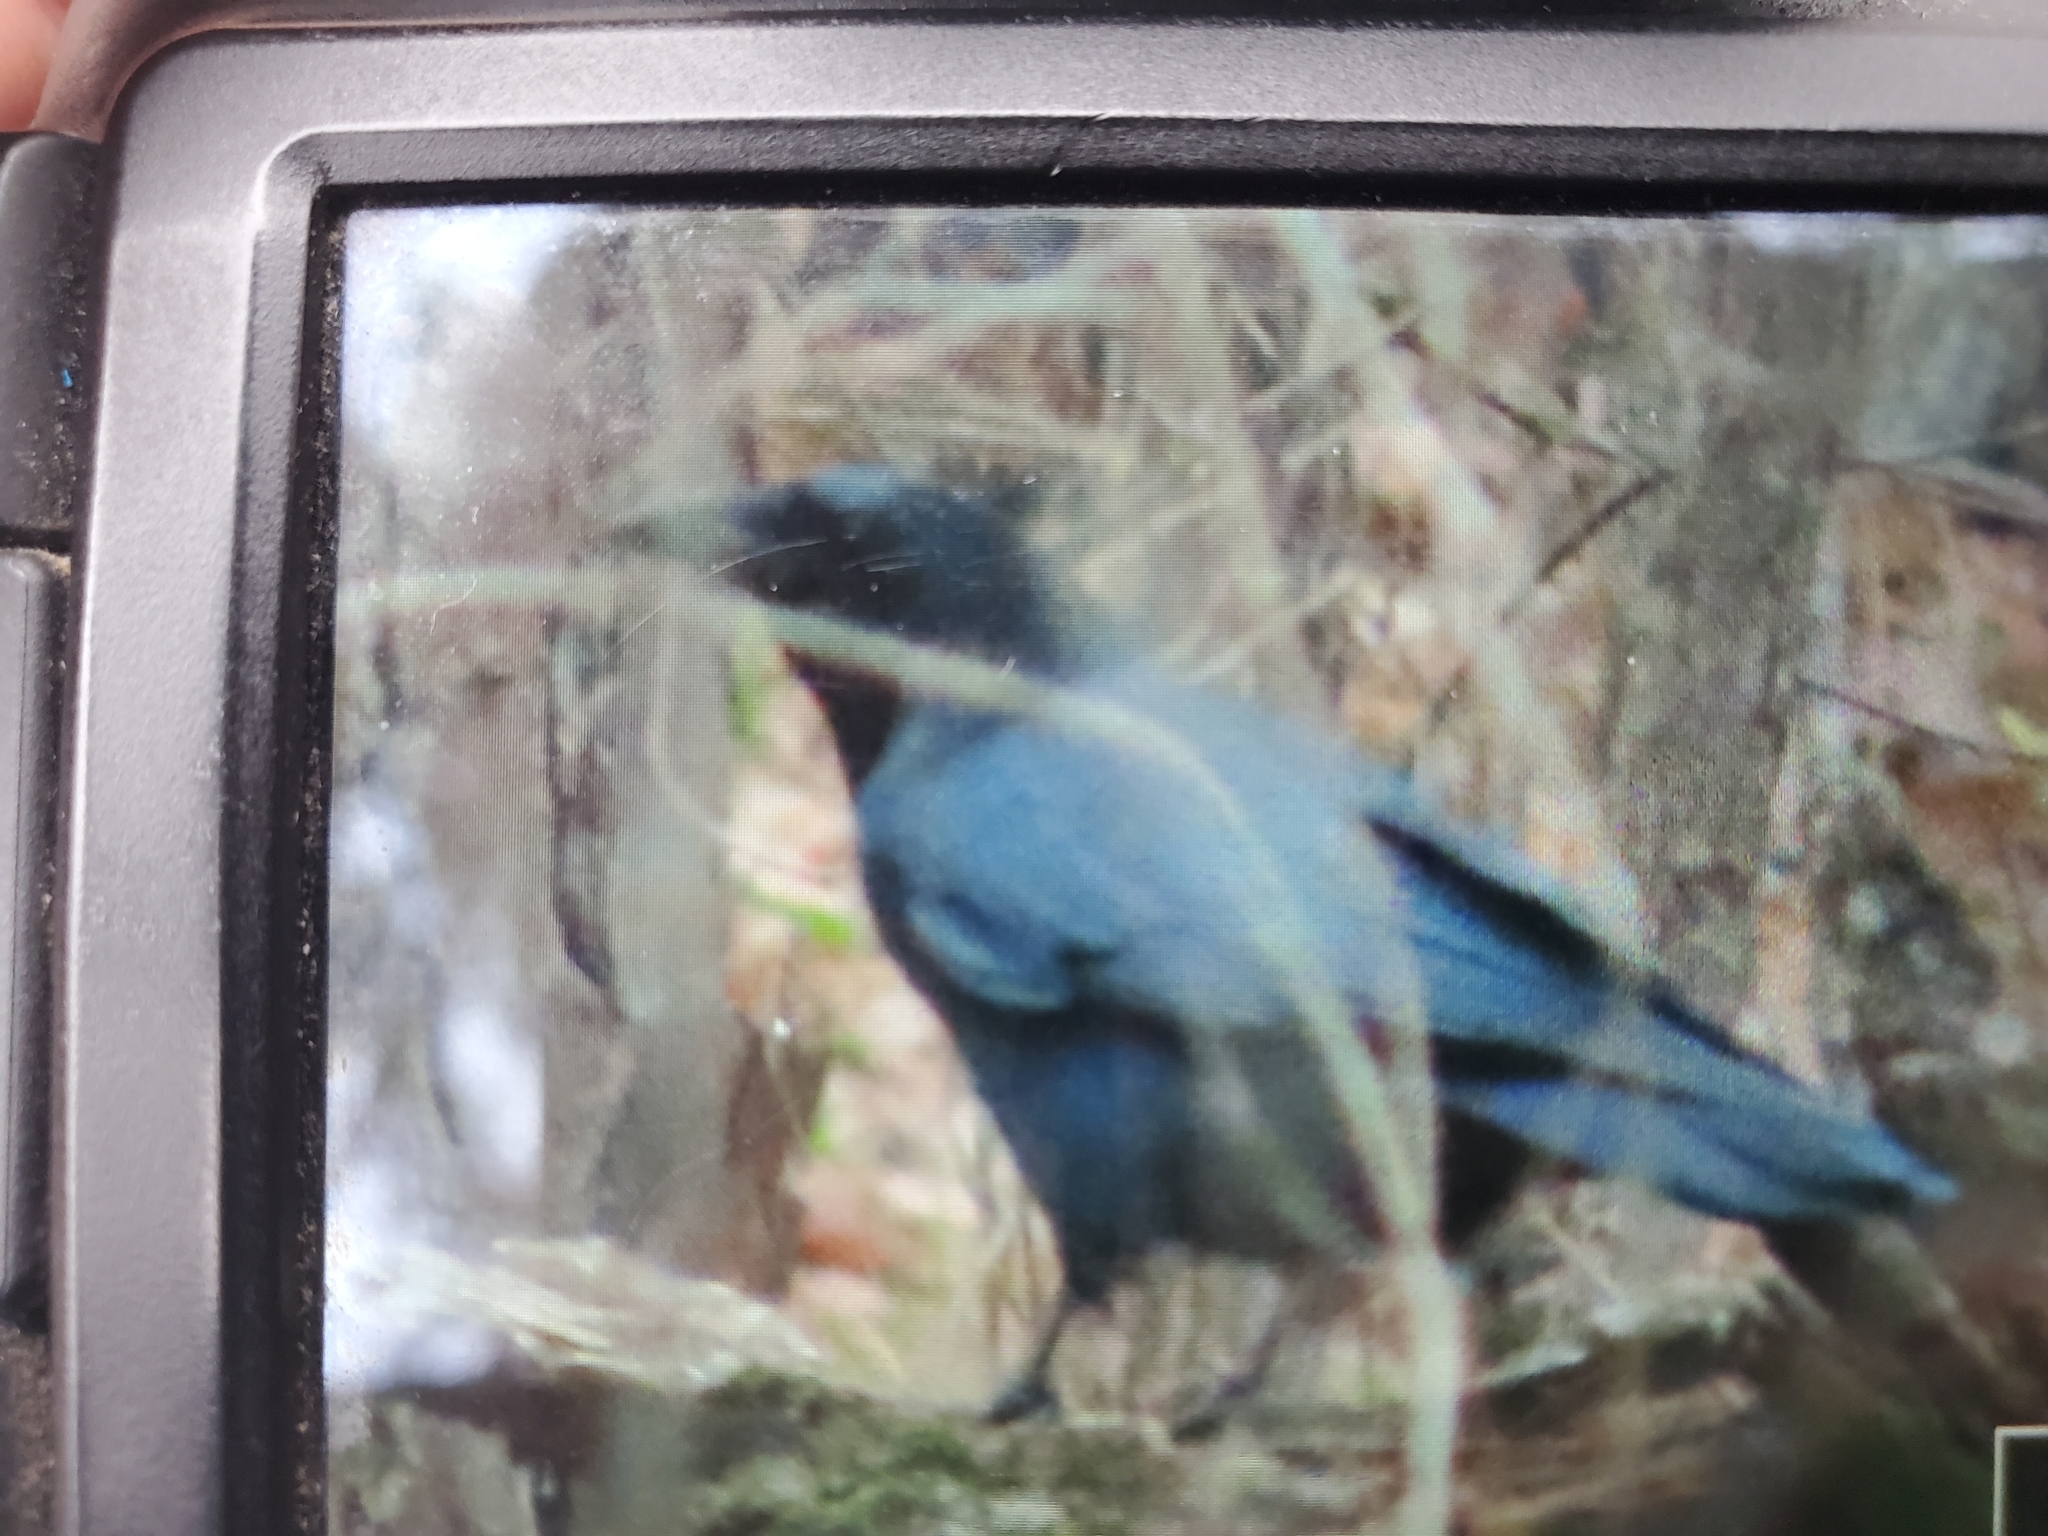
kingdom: Animalia
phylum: Chordata
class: Aves
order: Passeriformes
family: Corvidae
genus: Corvus
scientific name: Corvus brachyrhynchos
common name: American crow
